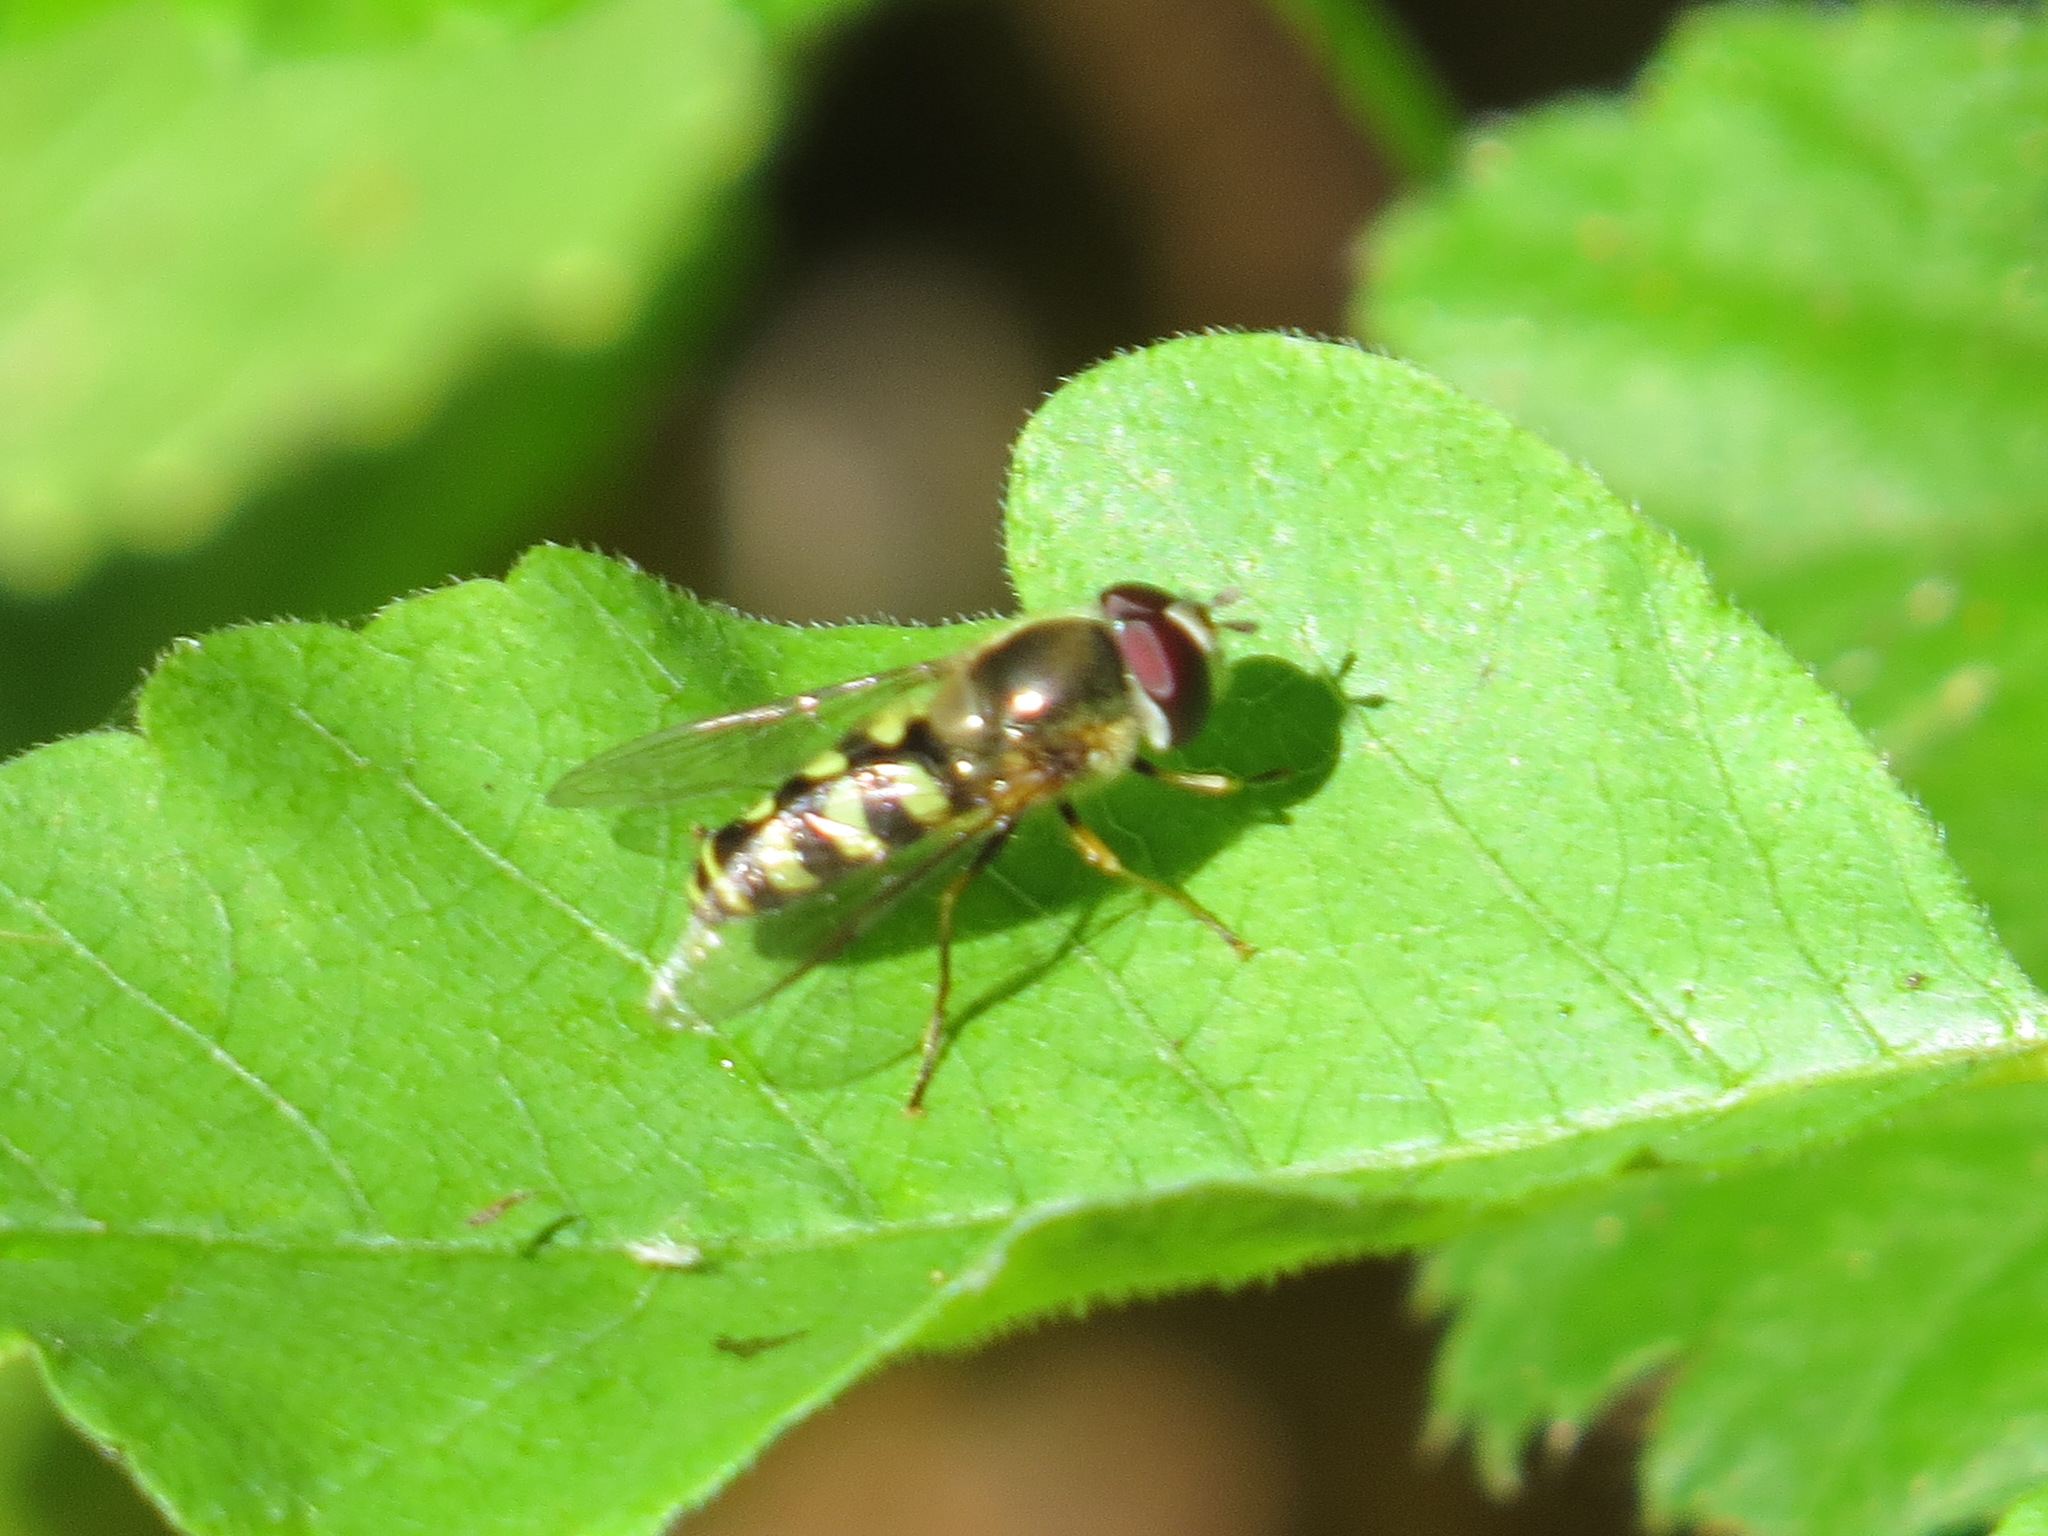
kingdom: Animalia
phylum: Arthropoda
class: Insecta
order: Diptera
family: Syrphidae
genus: Lapposyrphus
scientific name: Lapposyrphus lapponicus
